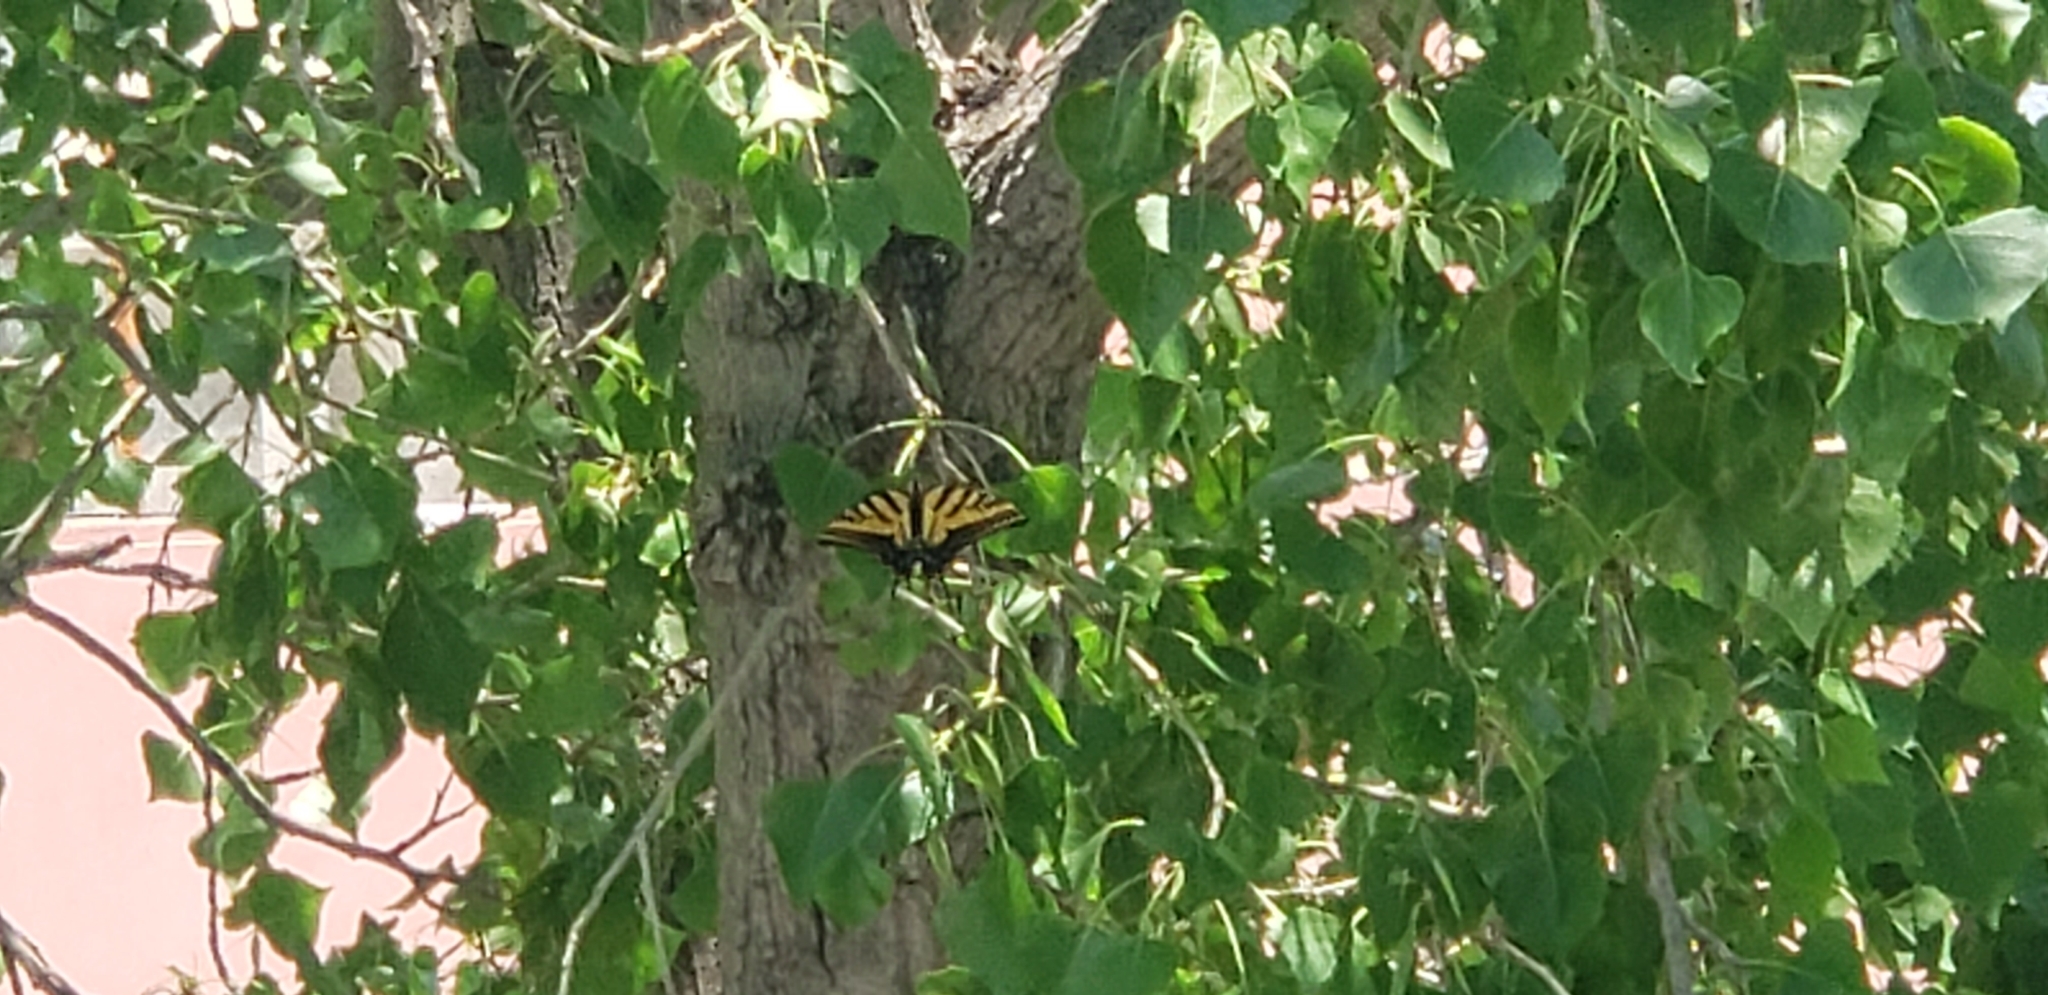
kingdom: Animalia
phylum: Arthropoda
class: Insecta
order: Lepidoptera
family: Papilionidae
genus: Papilio
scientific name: Papilio multicaudata
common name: Two-tailed tiger swallowtail
